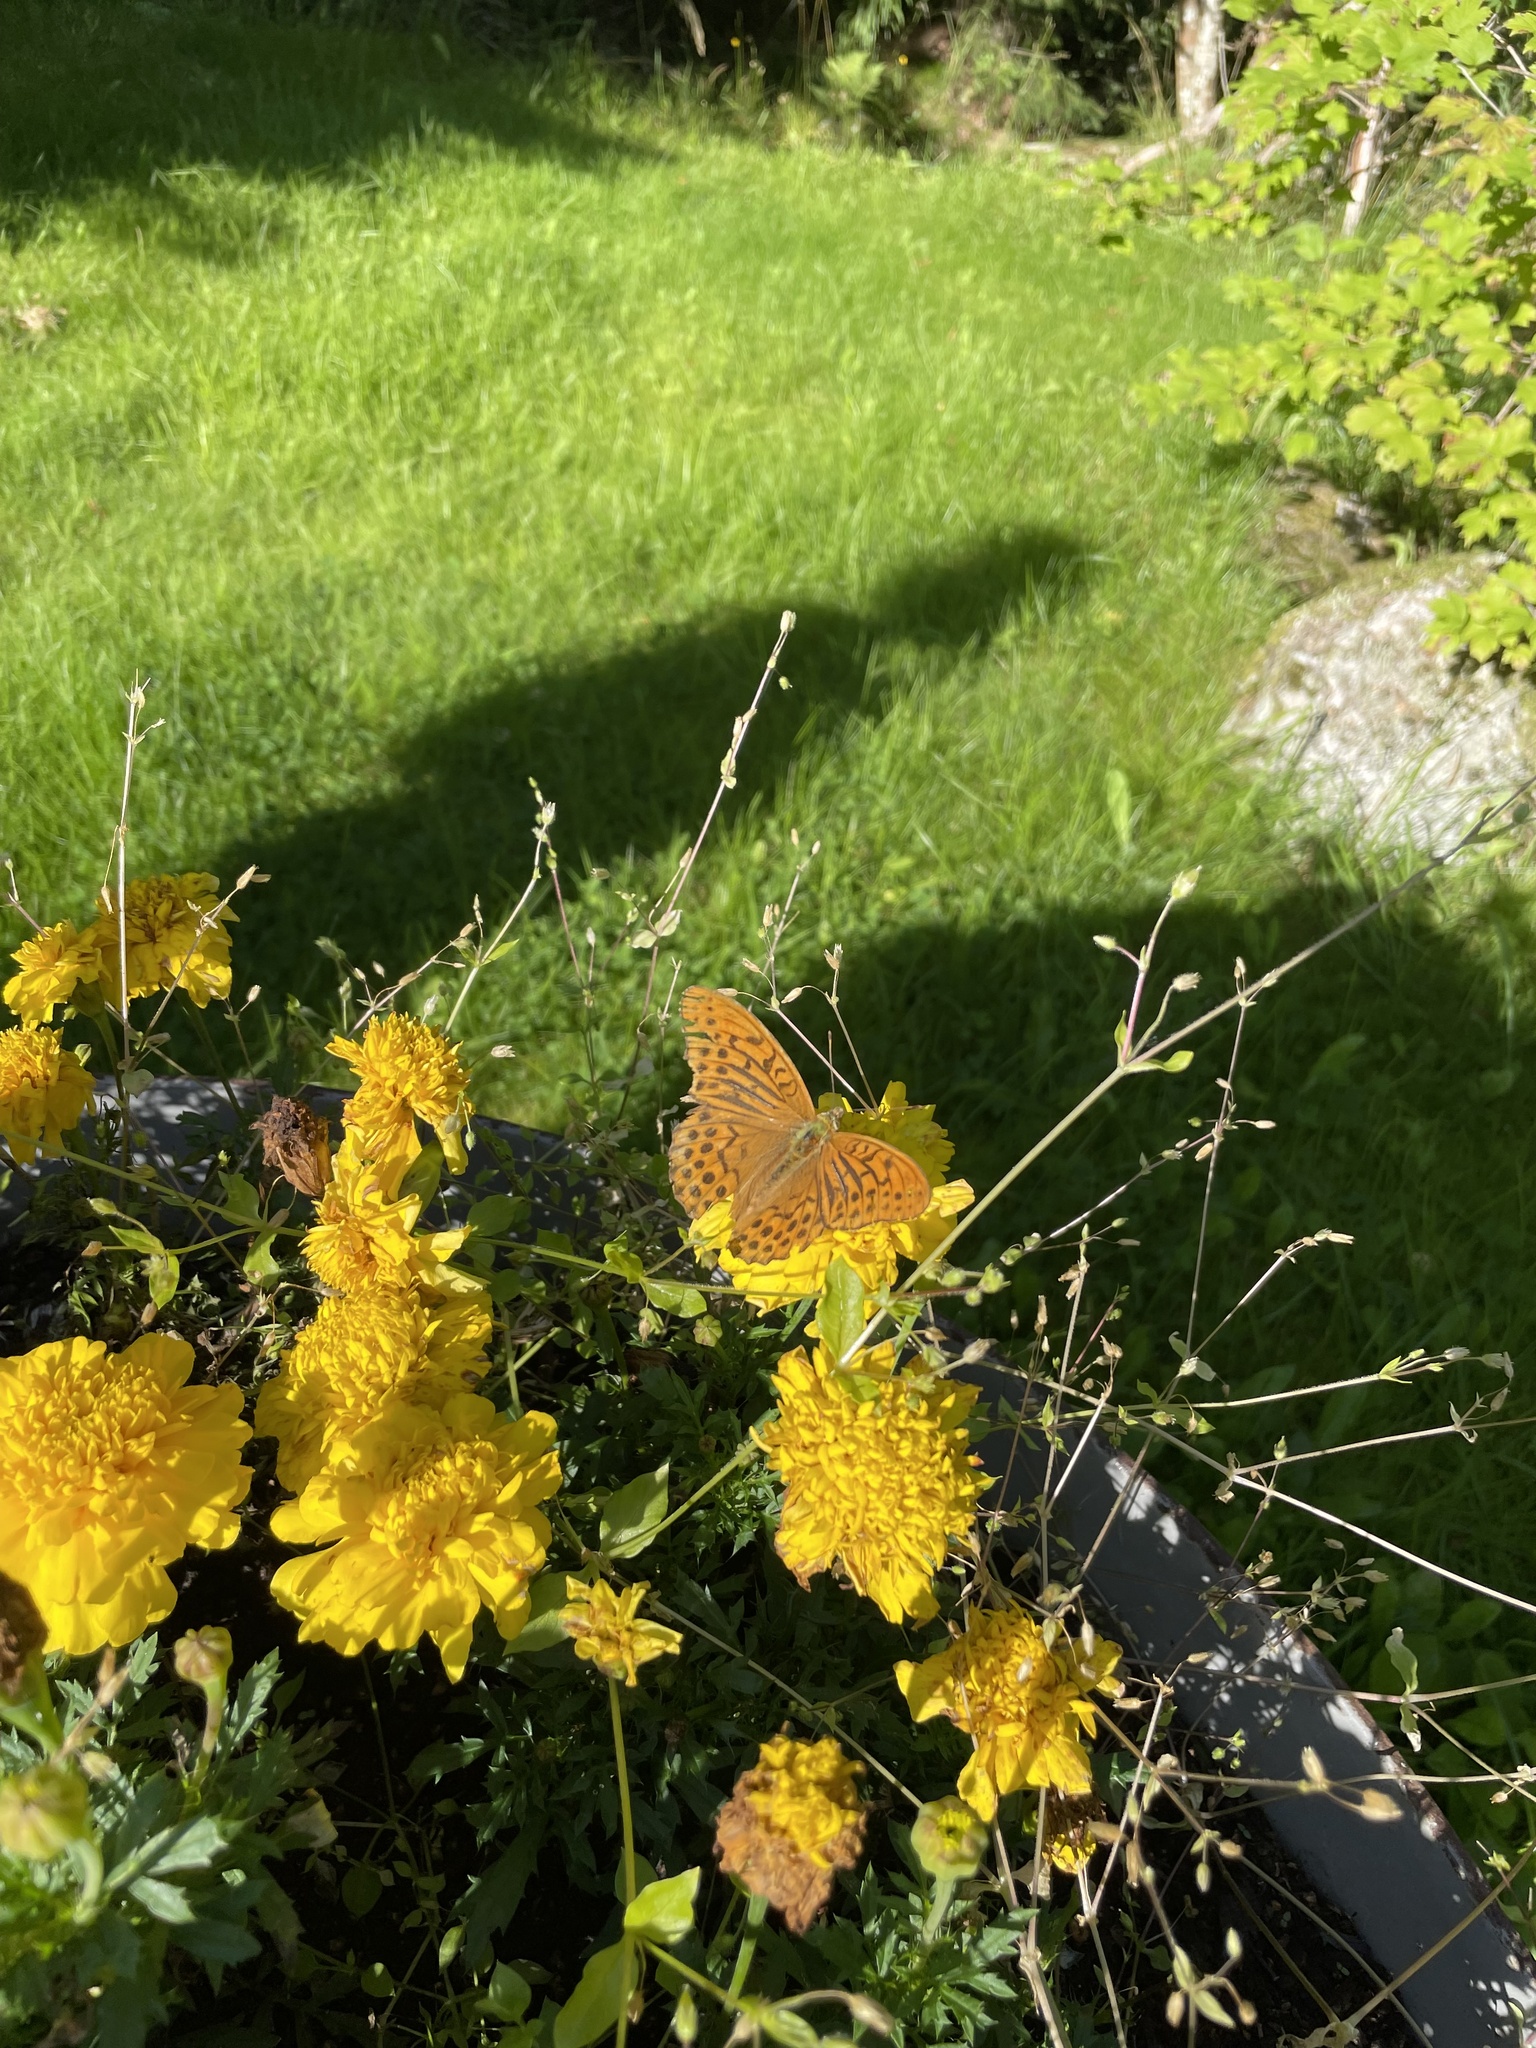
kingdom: Animalia
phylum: Arthropoda
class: Insecta
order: Lepidoptera
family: Nymphalidae
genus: Argynnis
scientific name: Argynnis paphia
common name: Silver-washed fritillary
